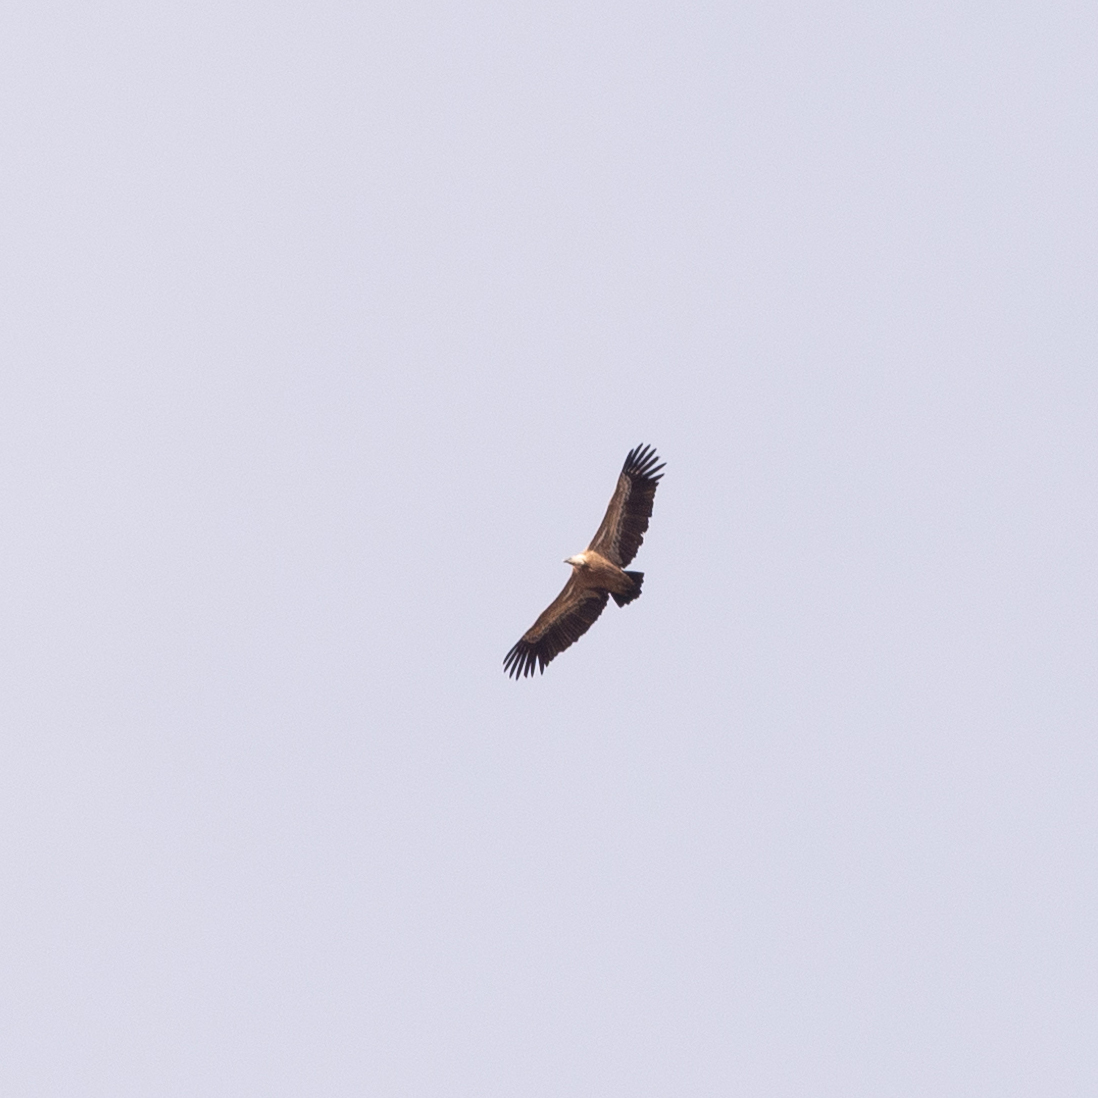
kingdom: Animalia
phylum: Chordata
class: Aves
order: Accipitriformes
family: Accipitridae
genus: Gyps
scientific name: Gyps fulvus
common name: Griffon vulture
